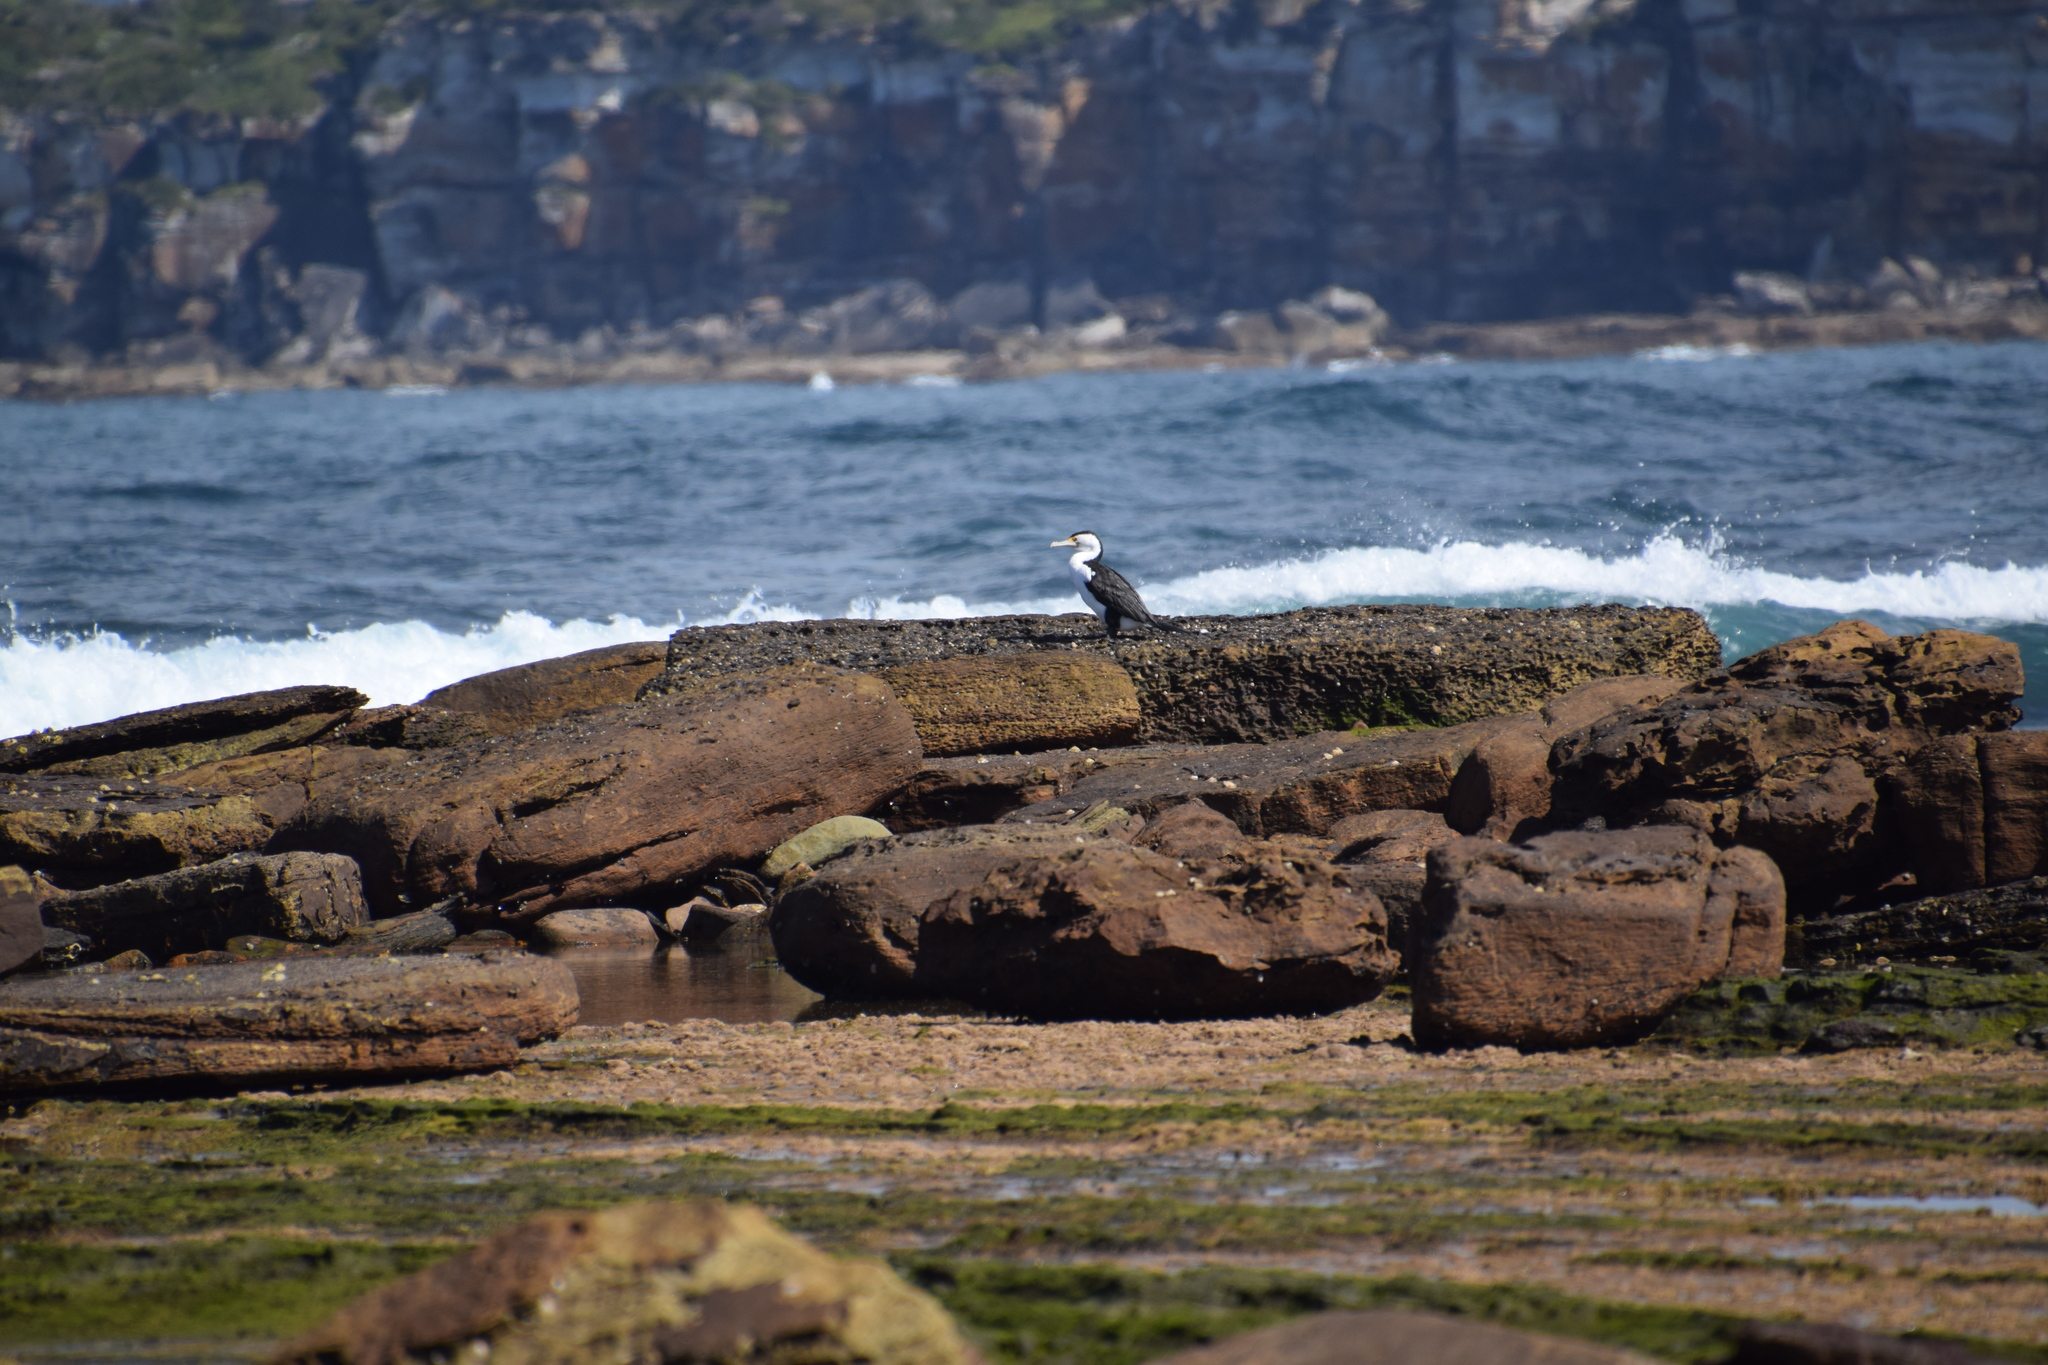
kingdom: Animalia
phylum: Chordata
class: Aves
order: Suliformes
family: Phalacrocoracidae
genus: Phalacrocorax
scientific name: Phalacrocorax varius
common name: Pied cormorant
